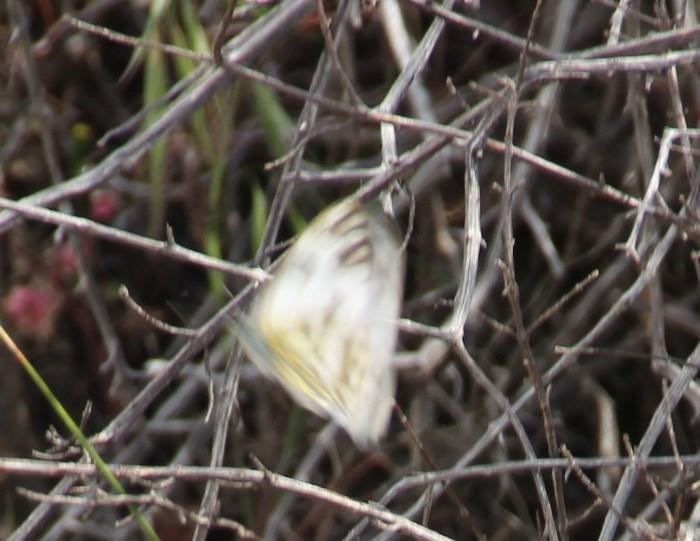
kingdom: Animalia
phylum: Arthropoda
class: Insecta
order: Lepidoptera
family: Pieridae
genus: Pontia
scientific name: Pontia helice
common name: Meadow white
